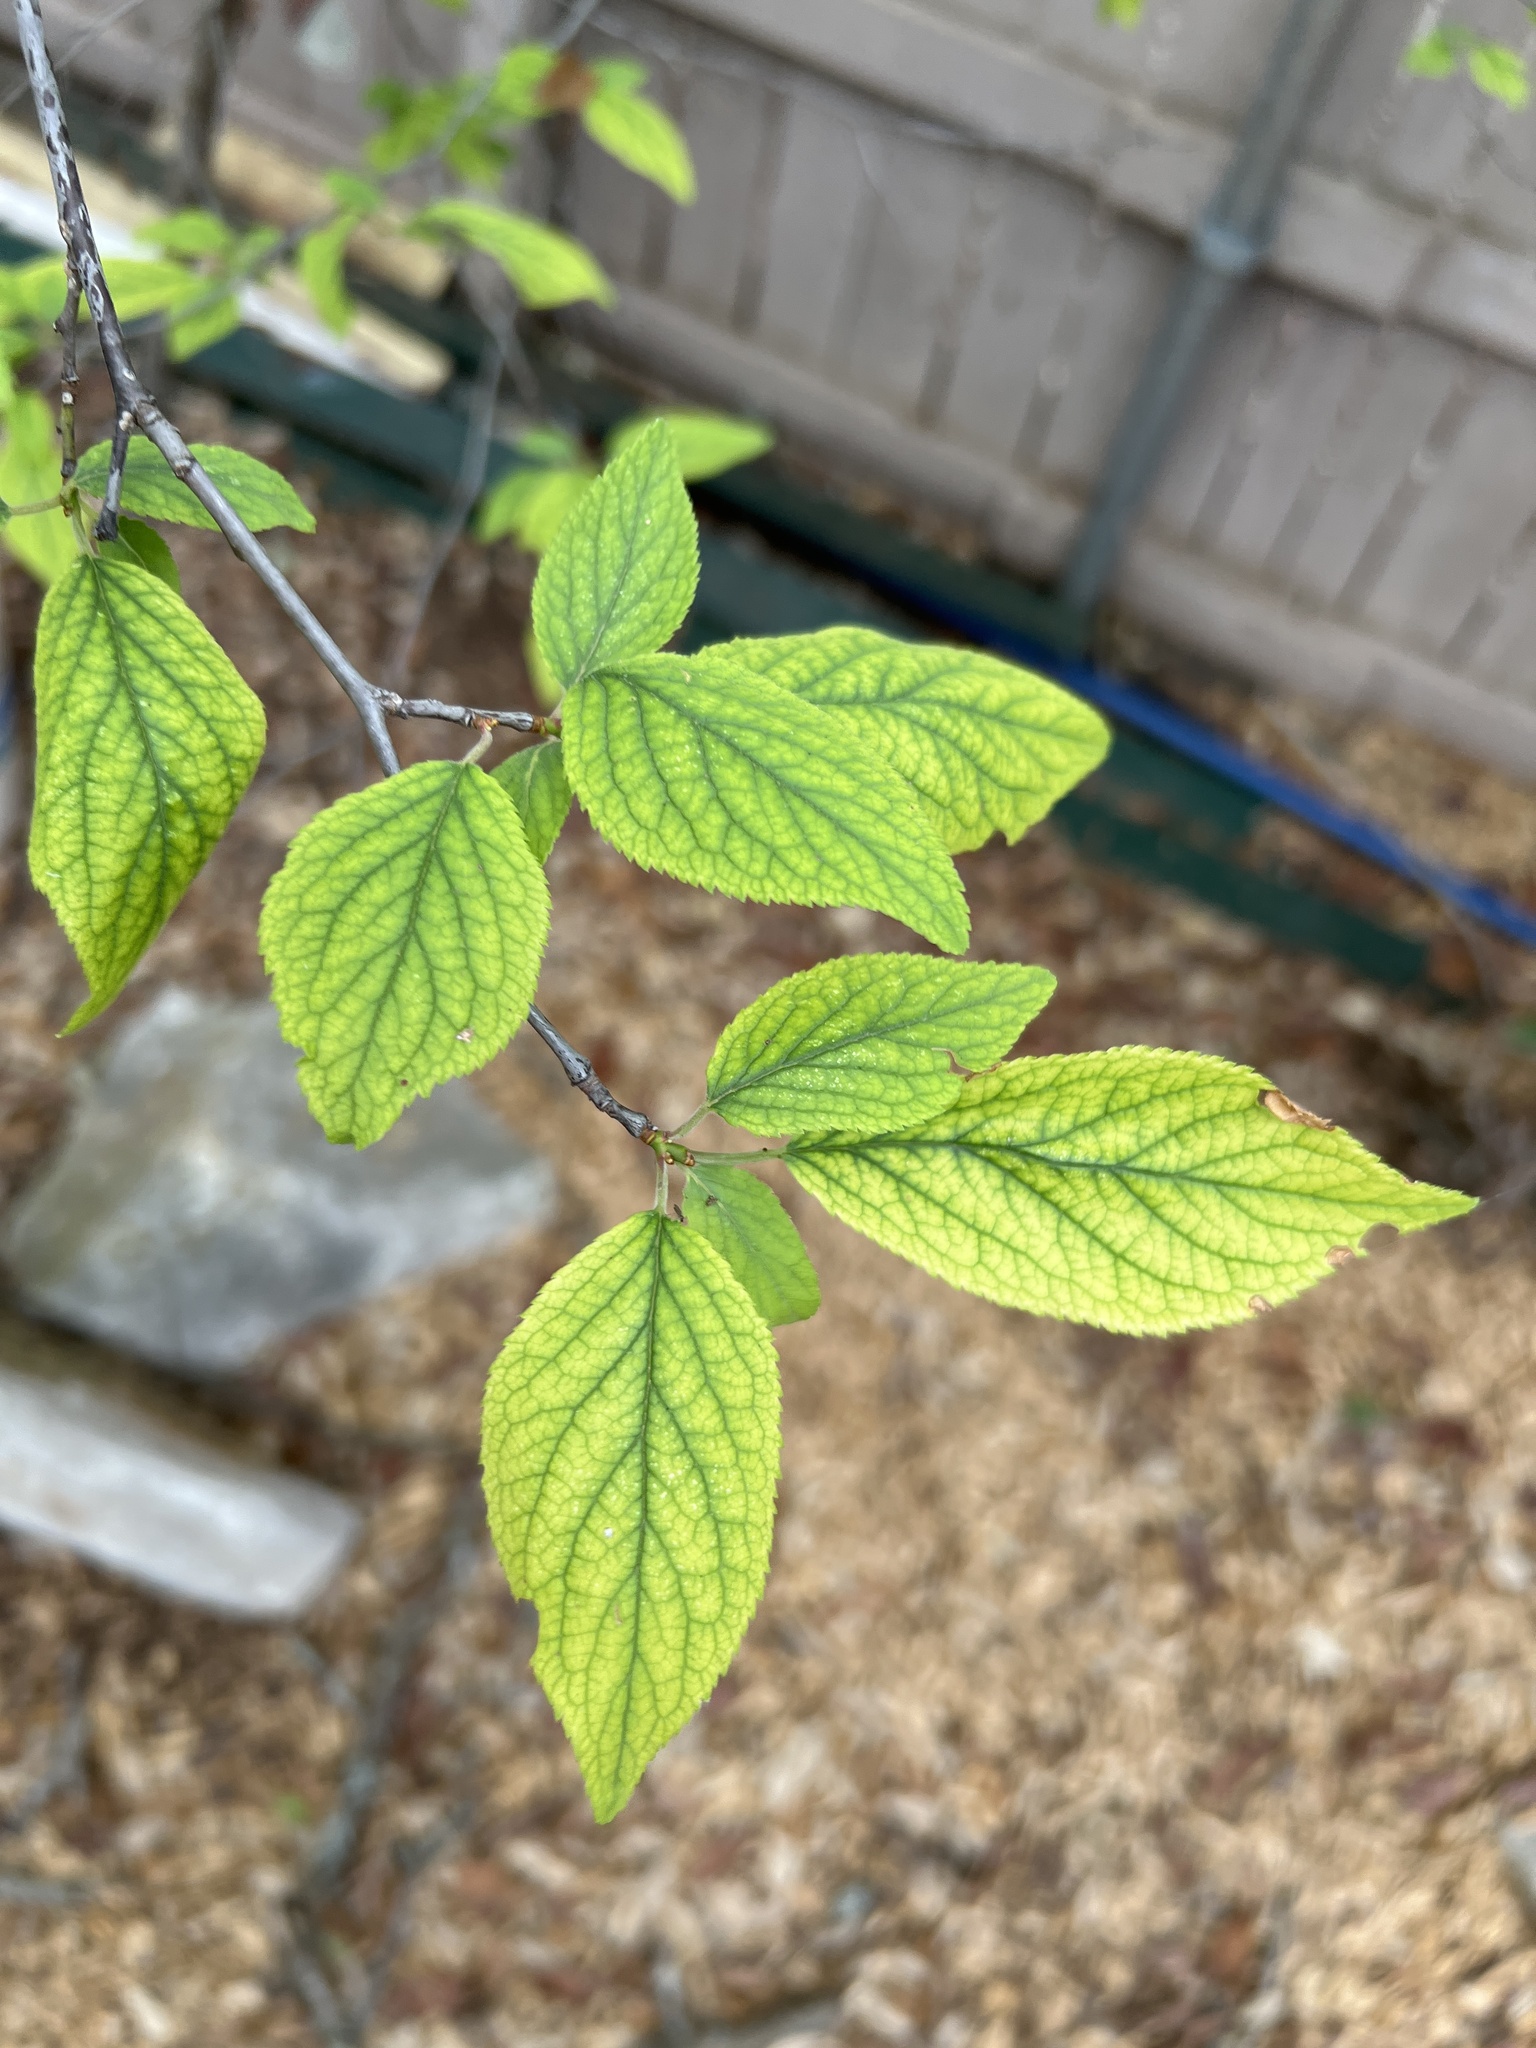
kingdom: Plantae
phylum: Tracheophyta
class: Magnoliopsida
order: Rosales
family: Rosaceae
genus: Prunus
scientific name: Prunus mexicana
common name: Mexican plum
